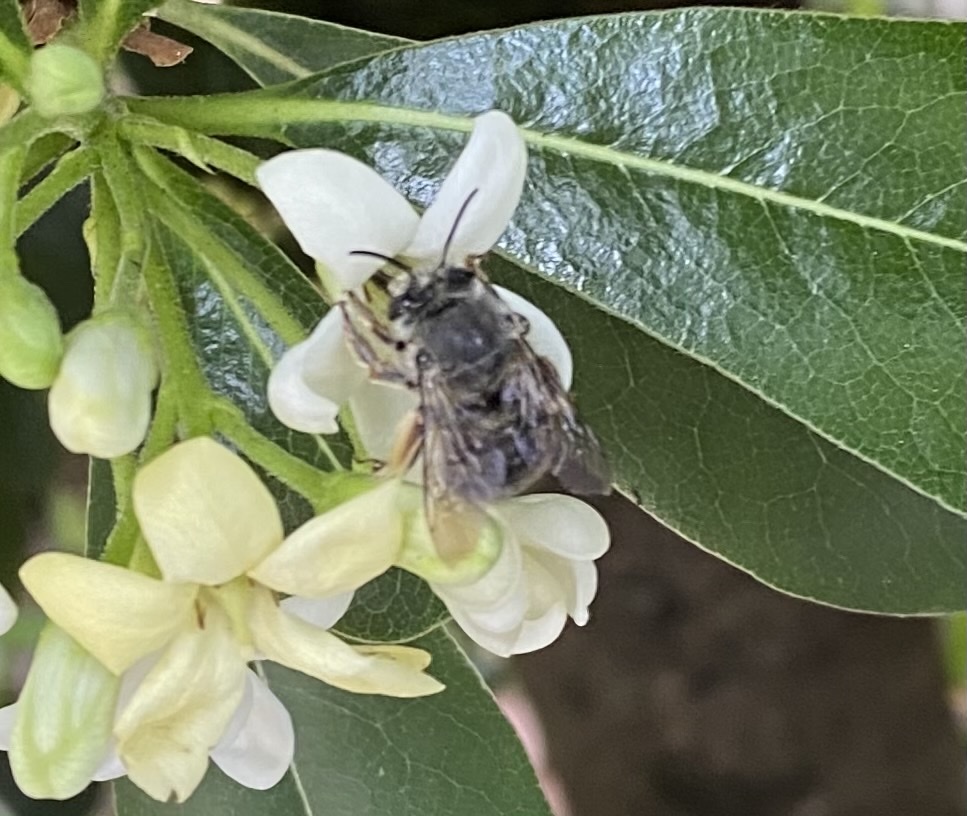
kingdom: Animalia
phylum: Arthropoda
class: Insecta
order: Hymenoptera
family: Apidae
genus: Habropoda
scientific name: Habropoda depressa
